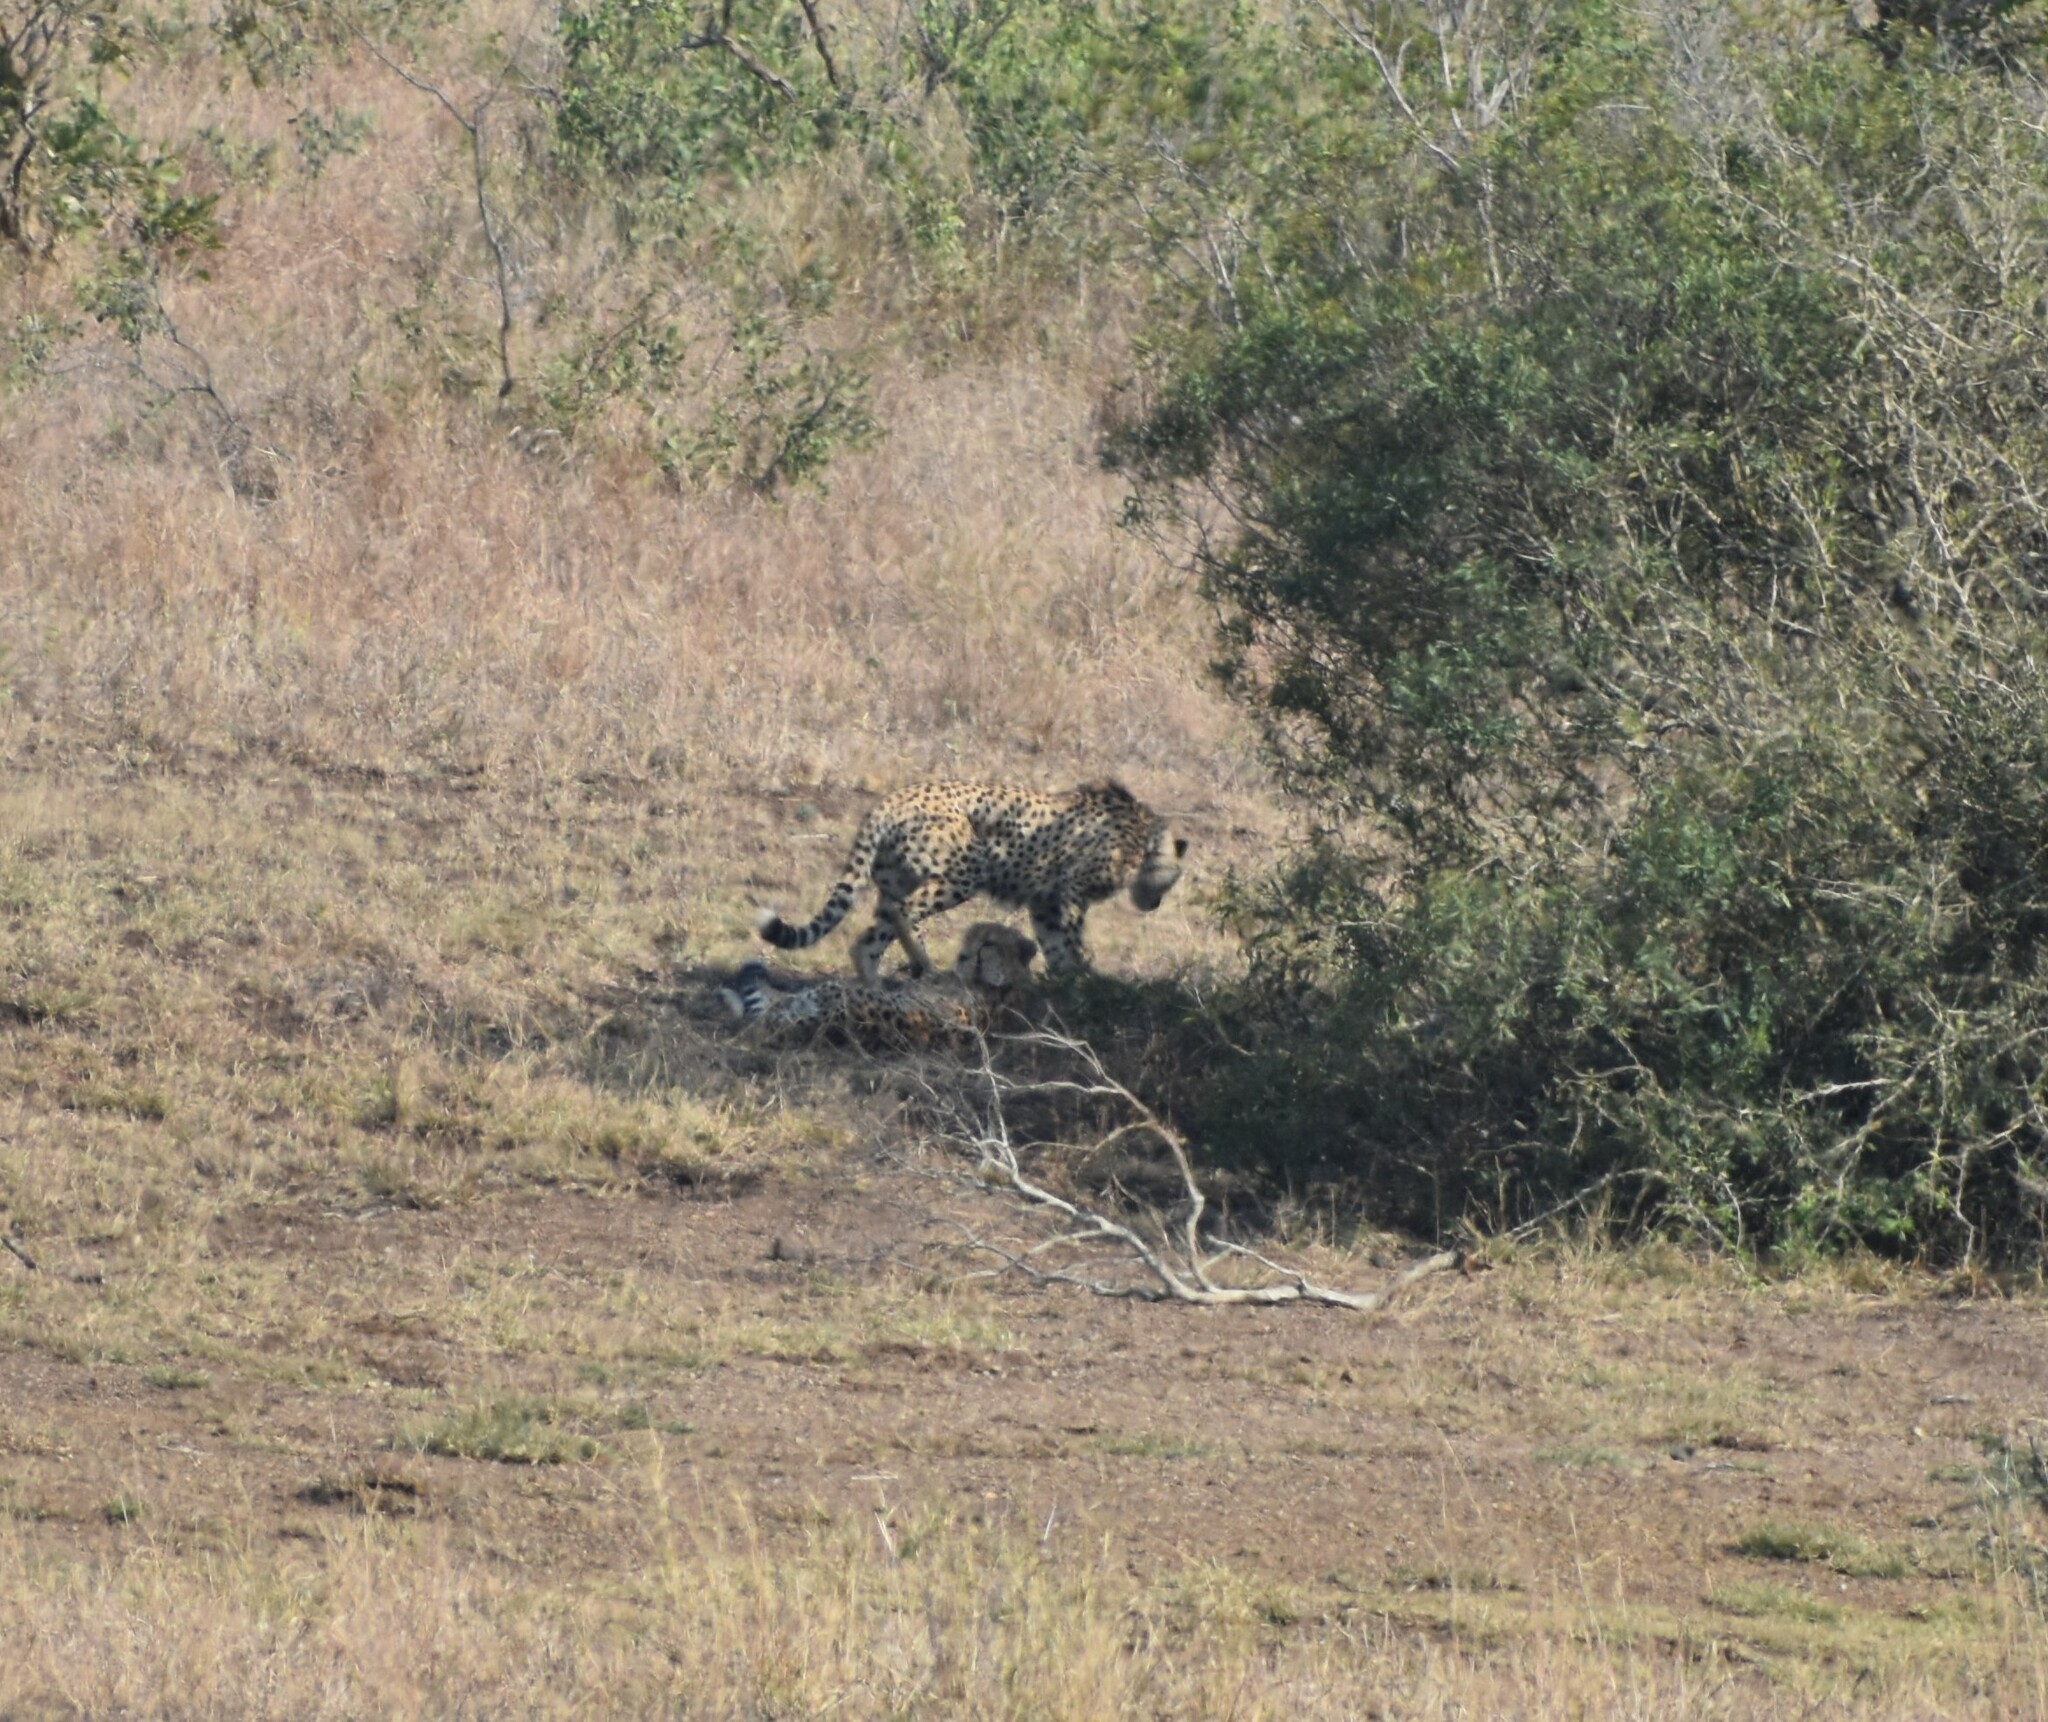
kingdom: Animalia
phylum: Chordata
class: Mammalia
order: Carnivora
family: Felidae
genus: Acinonyx
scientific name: Acinonyx jubatus
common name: Cheetah
